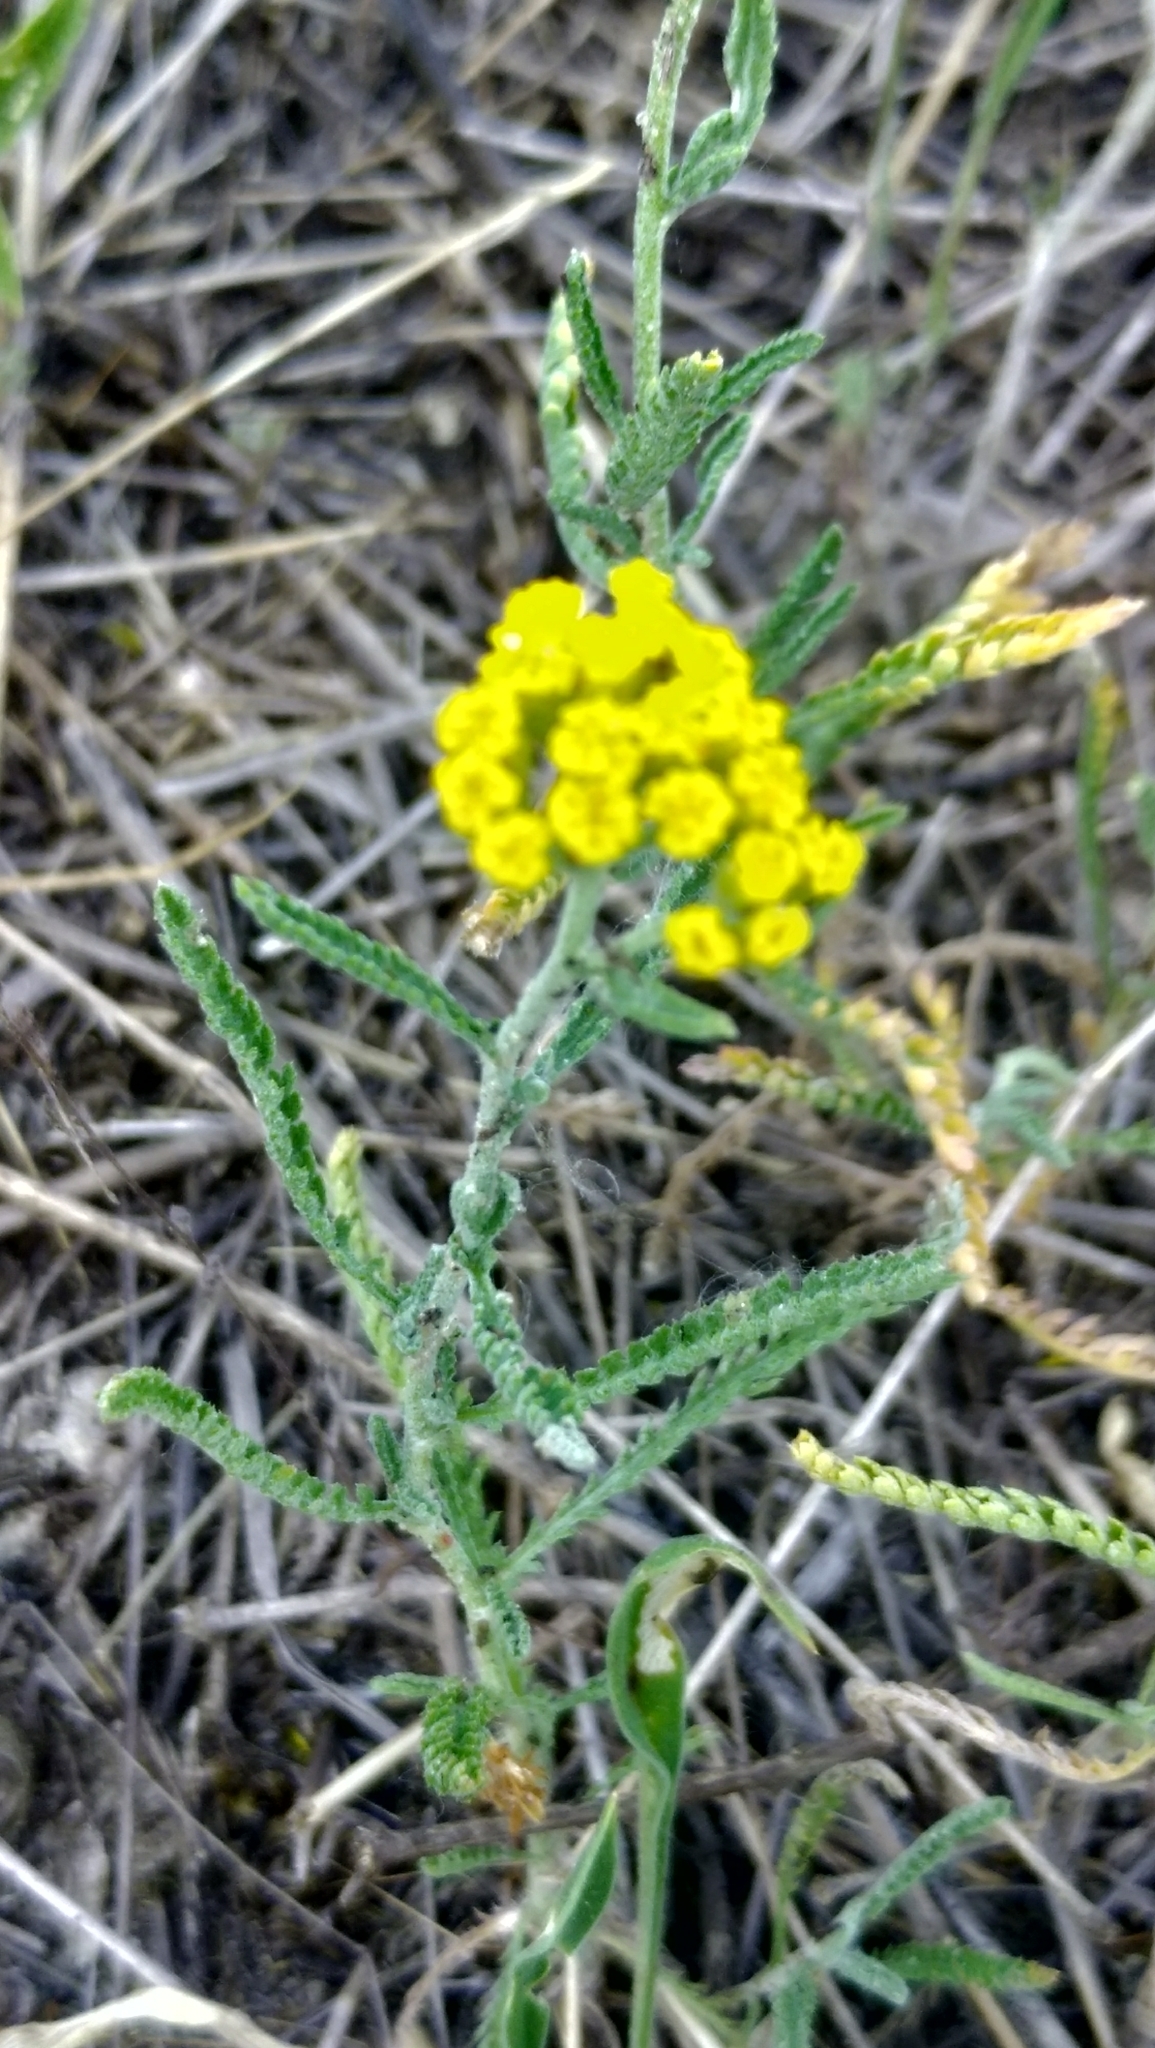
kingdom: Plantae
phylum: Tracheophyta
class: Magnoliopsida
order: Asterales
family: Asteraceae
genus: Achillea
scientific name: Achillea micrantha
